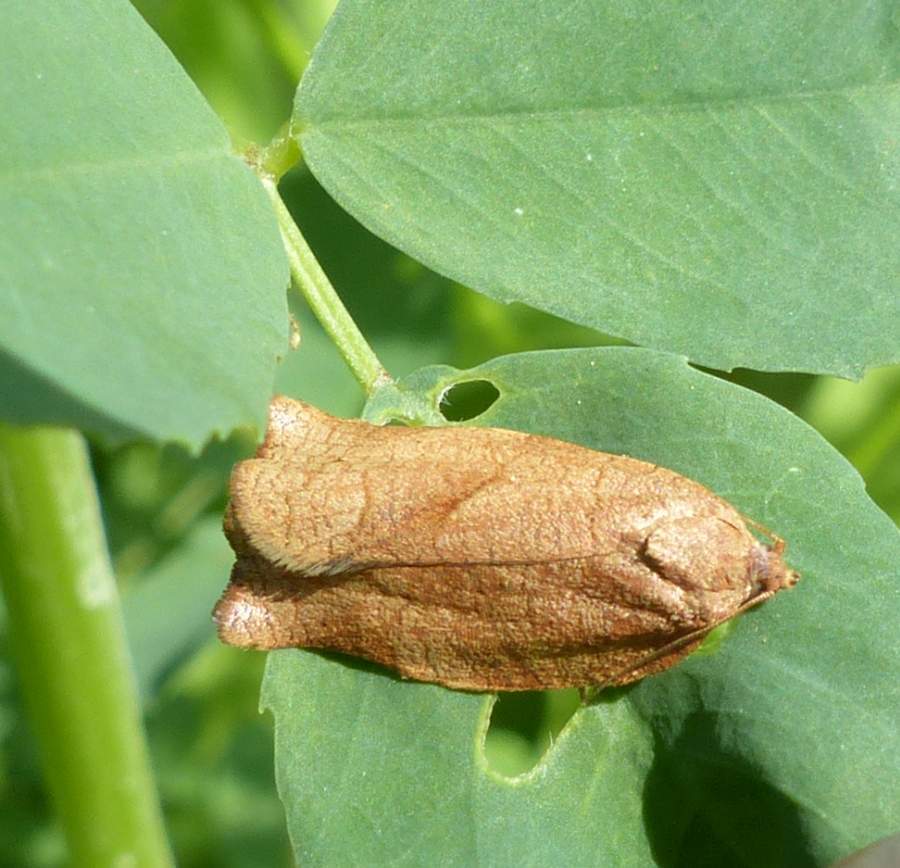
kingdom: Animalia
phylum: Arthropoda
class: Insecta
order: Lepidoptera
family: Tortricidae
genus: Choristoneura
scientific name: Choristoneura rosaceana
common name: Oblique-banded leafroller moth
